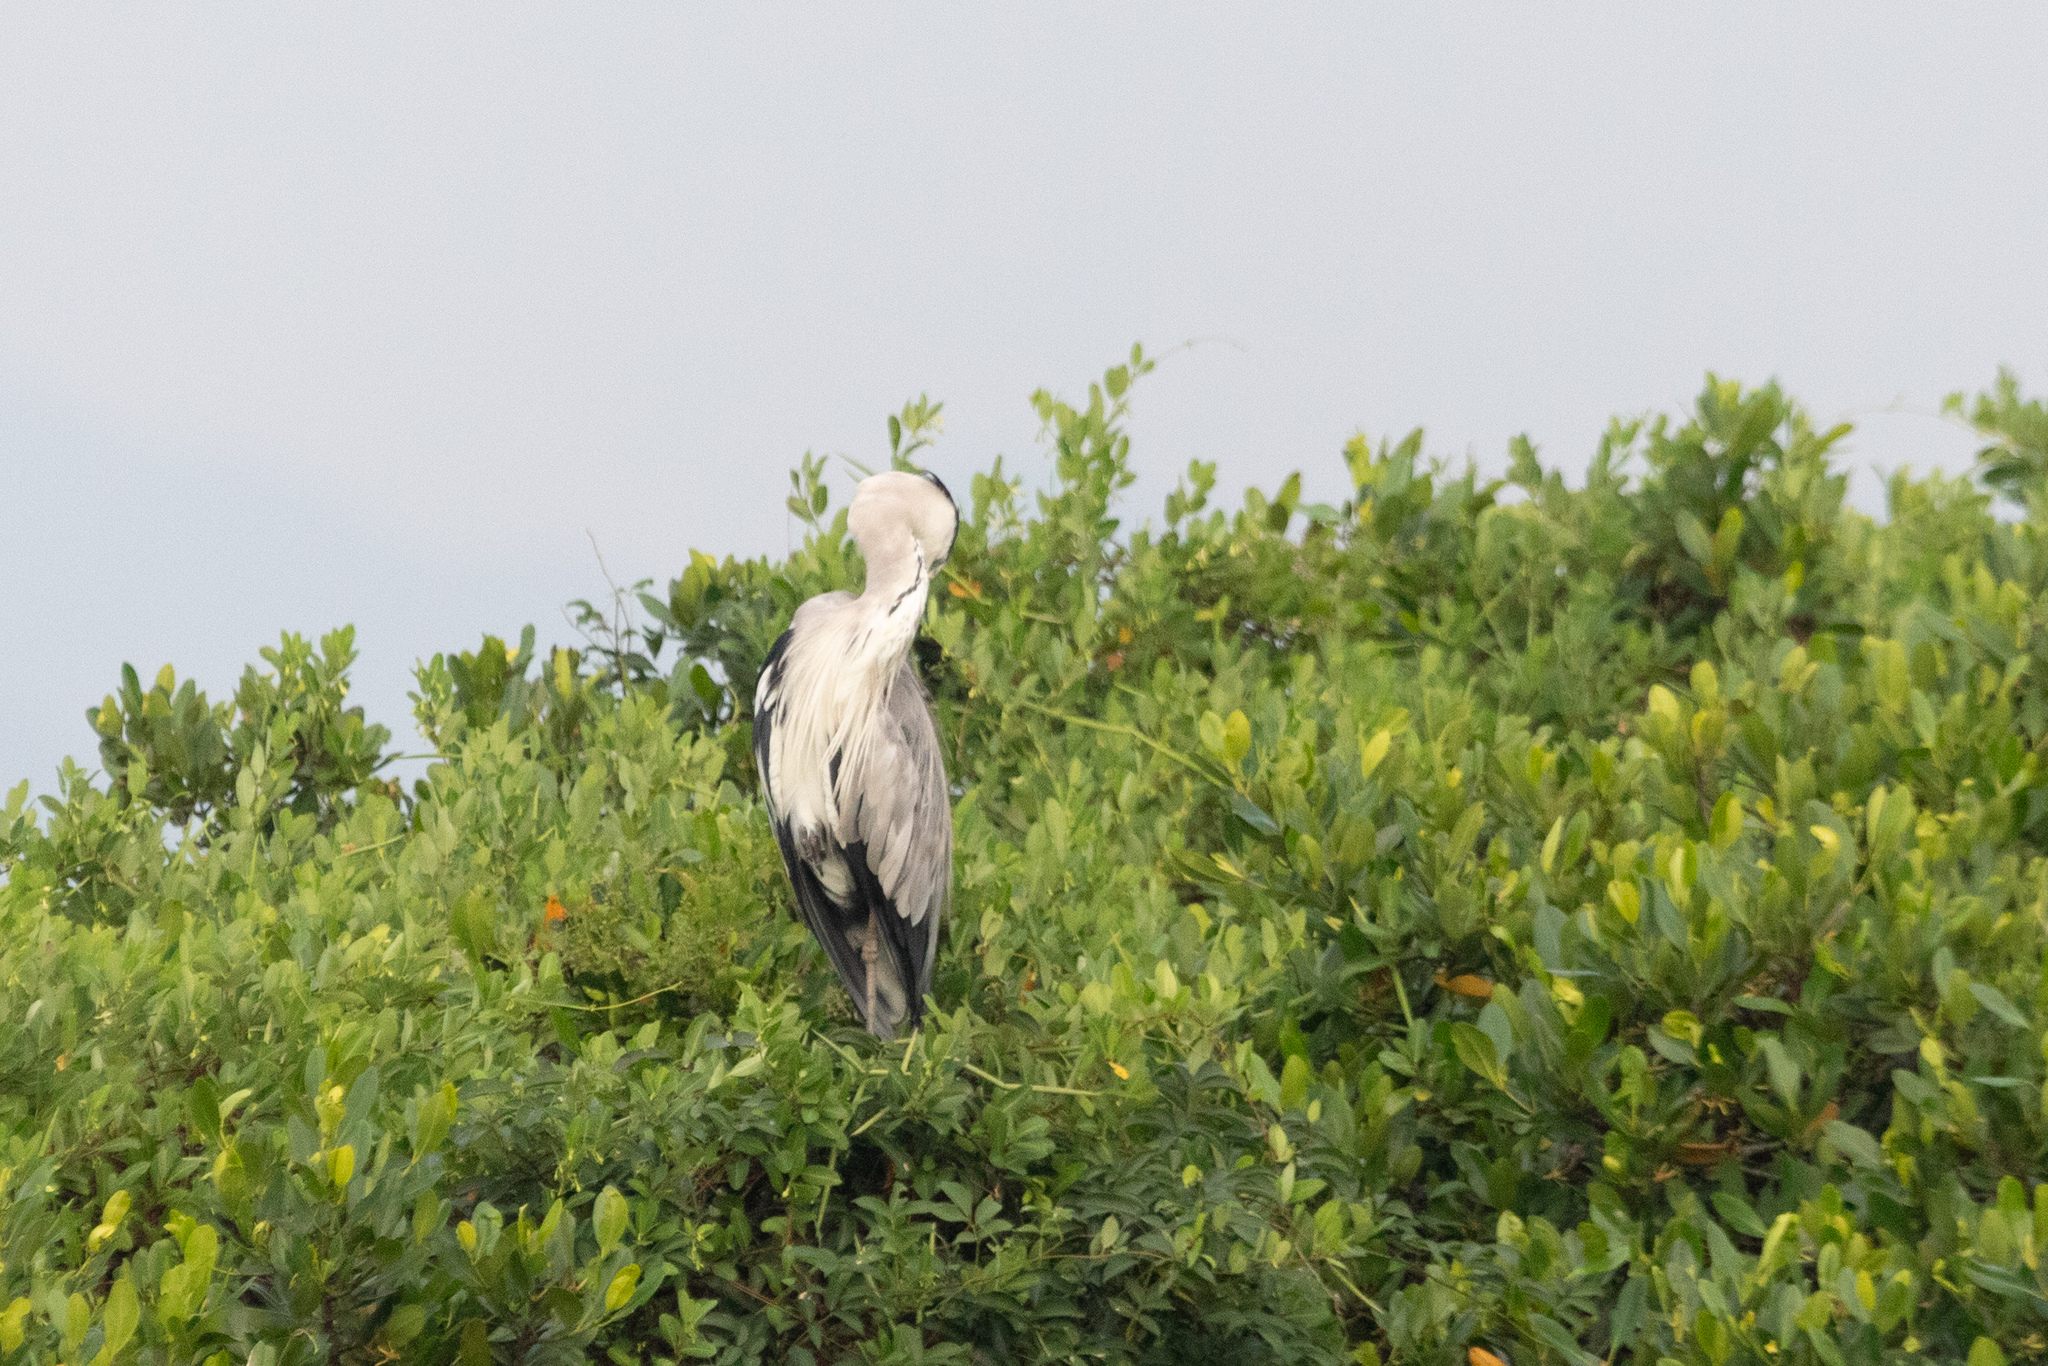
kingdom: Animalia
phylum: Chordata
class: Aves
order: Pelecaniformes
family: Ardeidae
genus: Ardea
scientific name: Ardea cinerea
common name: Grey heron
